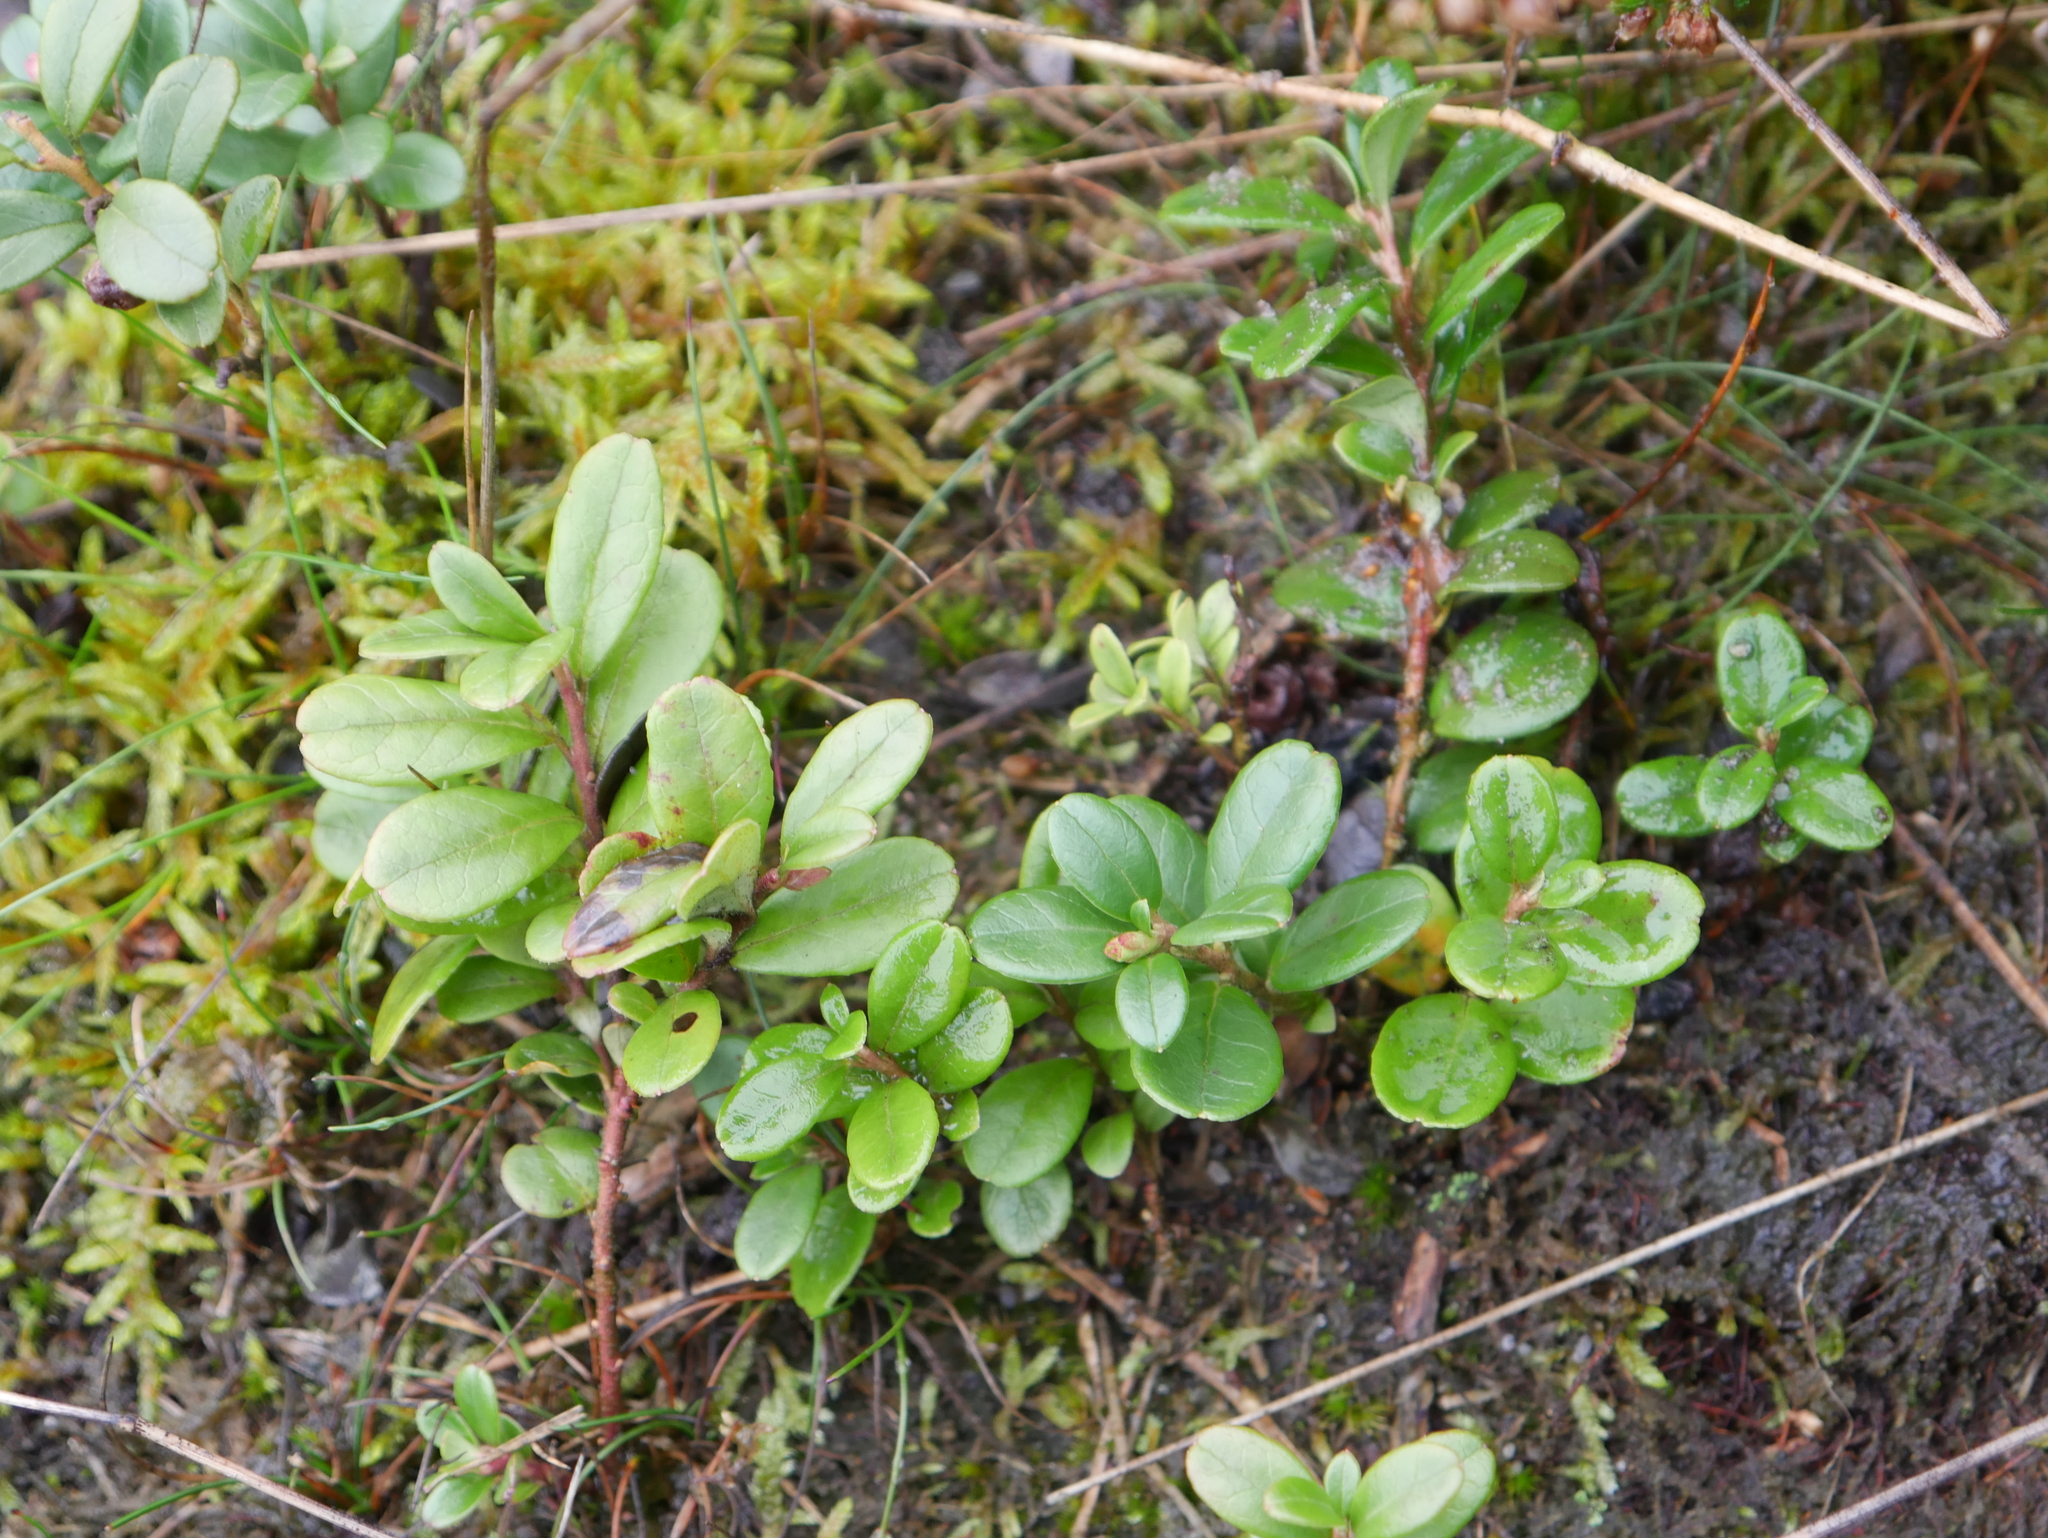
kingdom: Plantae
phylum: Tracheophyta
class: Magnoliopsida
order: Ericales
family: Ericaceae
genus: Vaccinium
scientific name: Vaccinium vitis-idaea
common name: Cowberry
